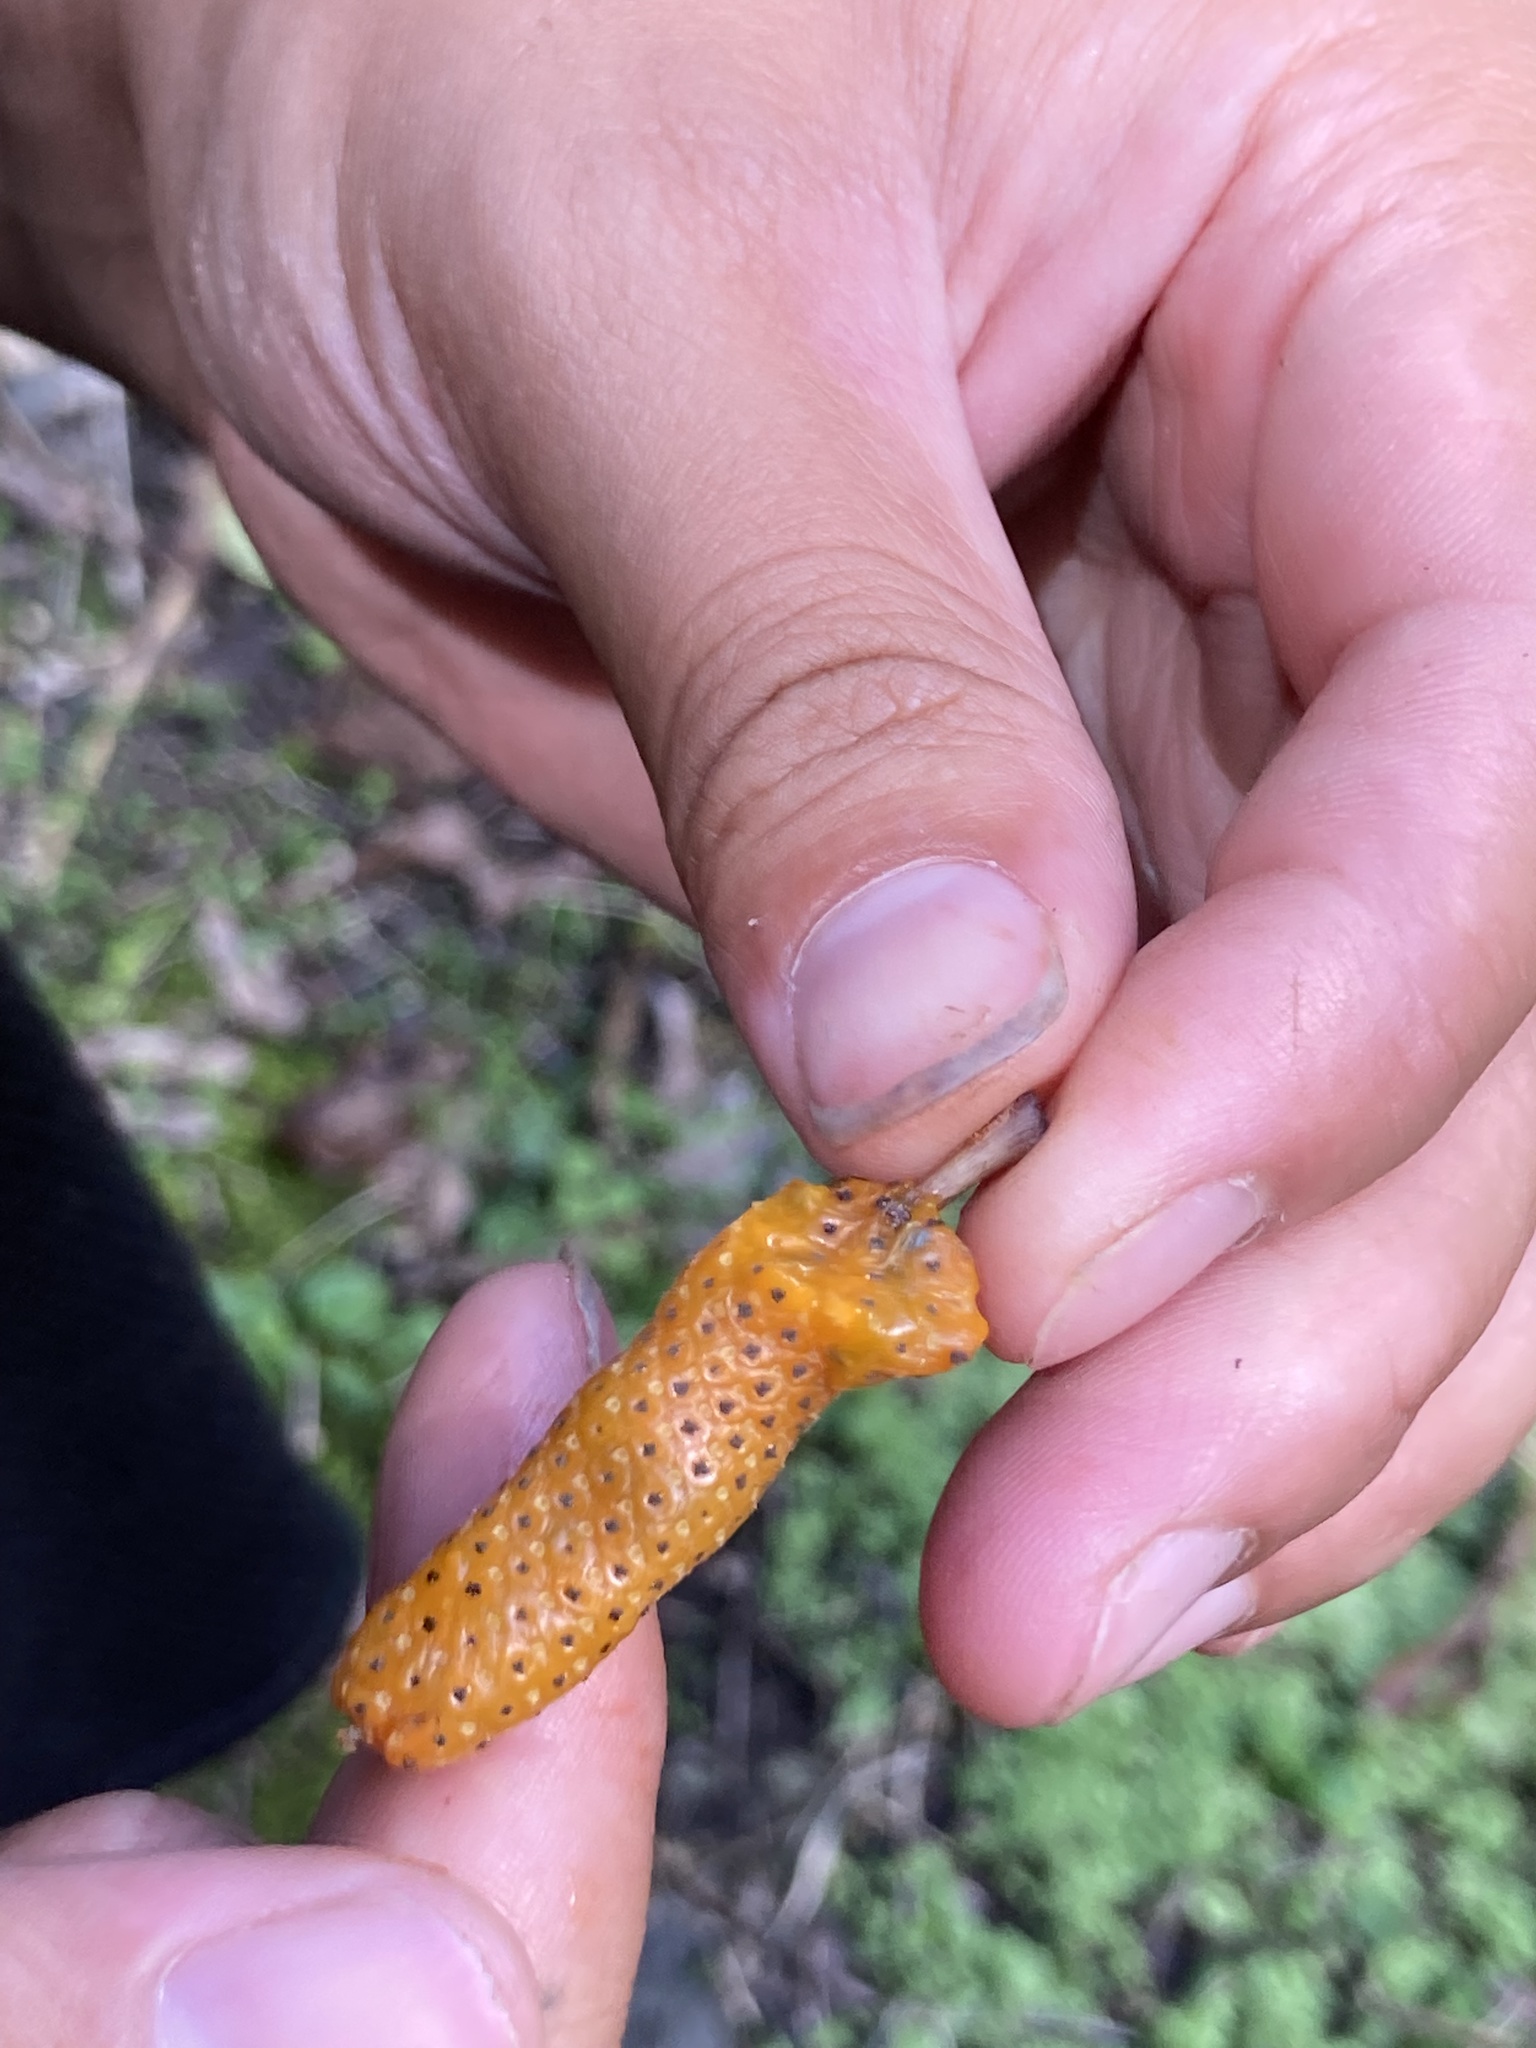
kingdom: Plantae
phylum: Tracheophyta
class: Magnoliopsida
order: Piperales
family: Piperaceae
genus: Macropiper
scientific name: Macropiper excelsum
